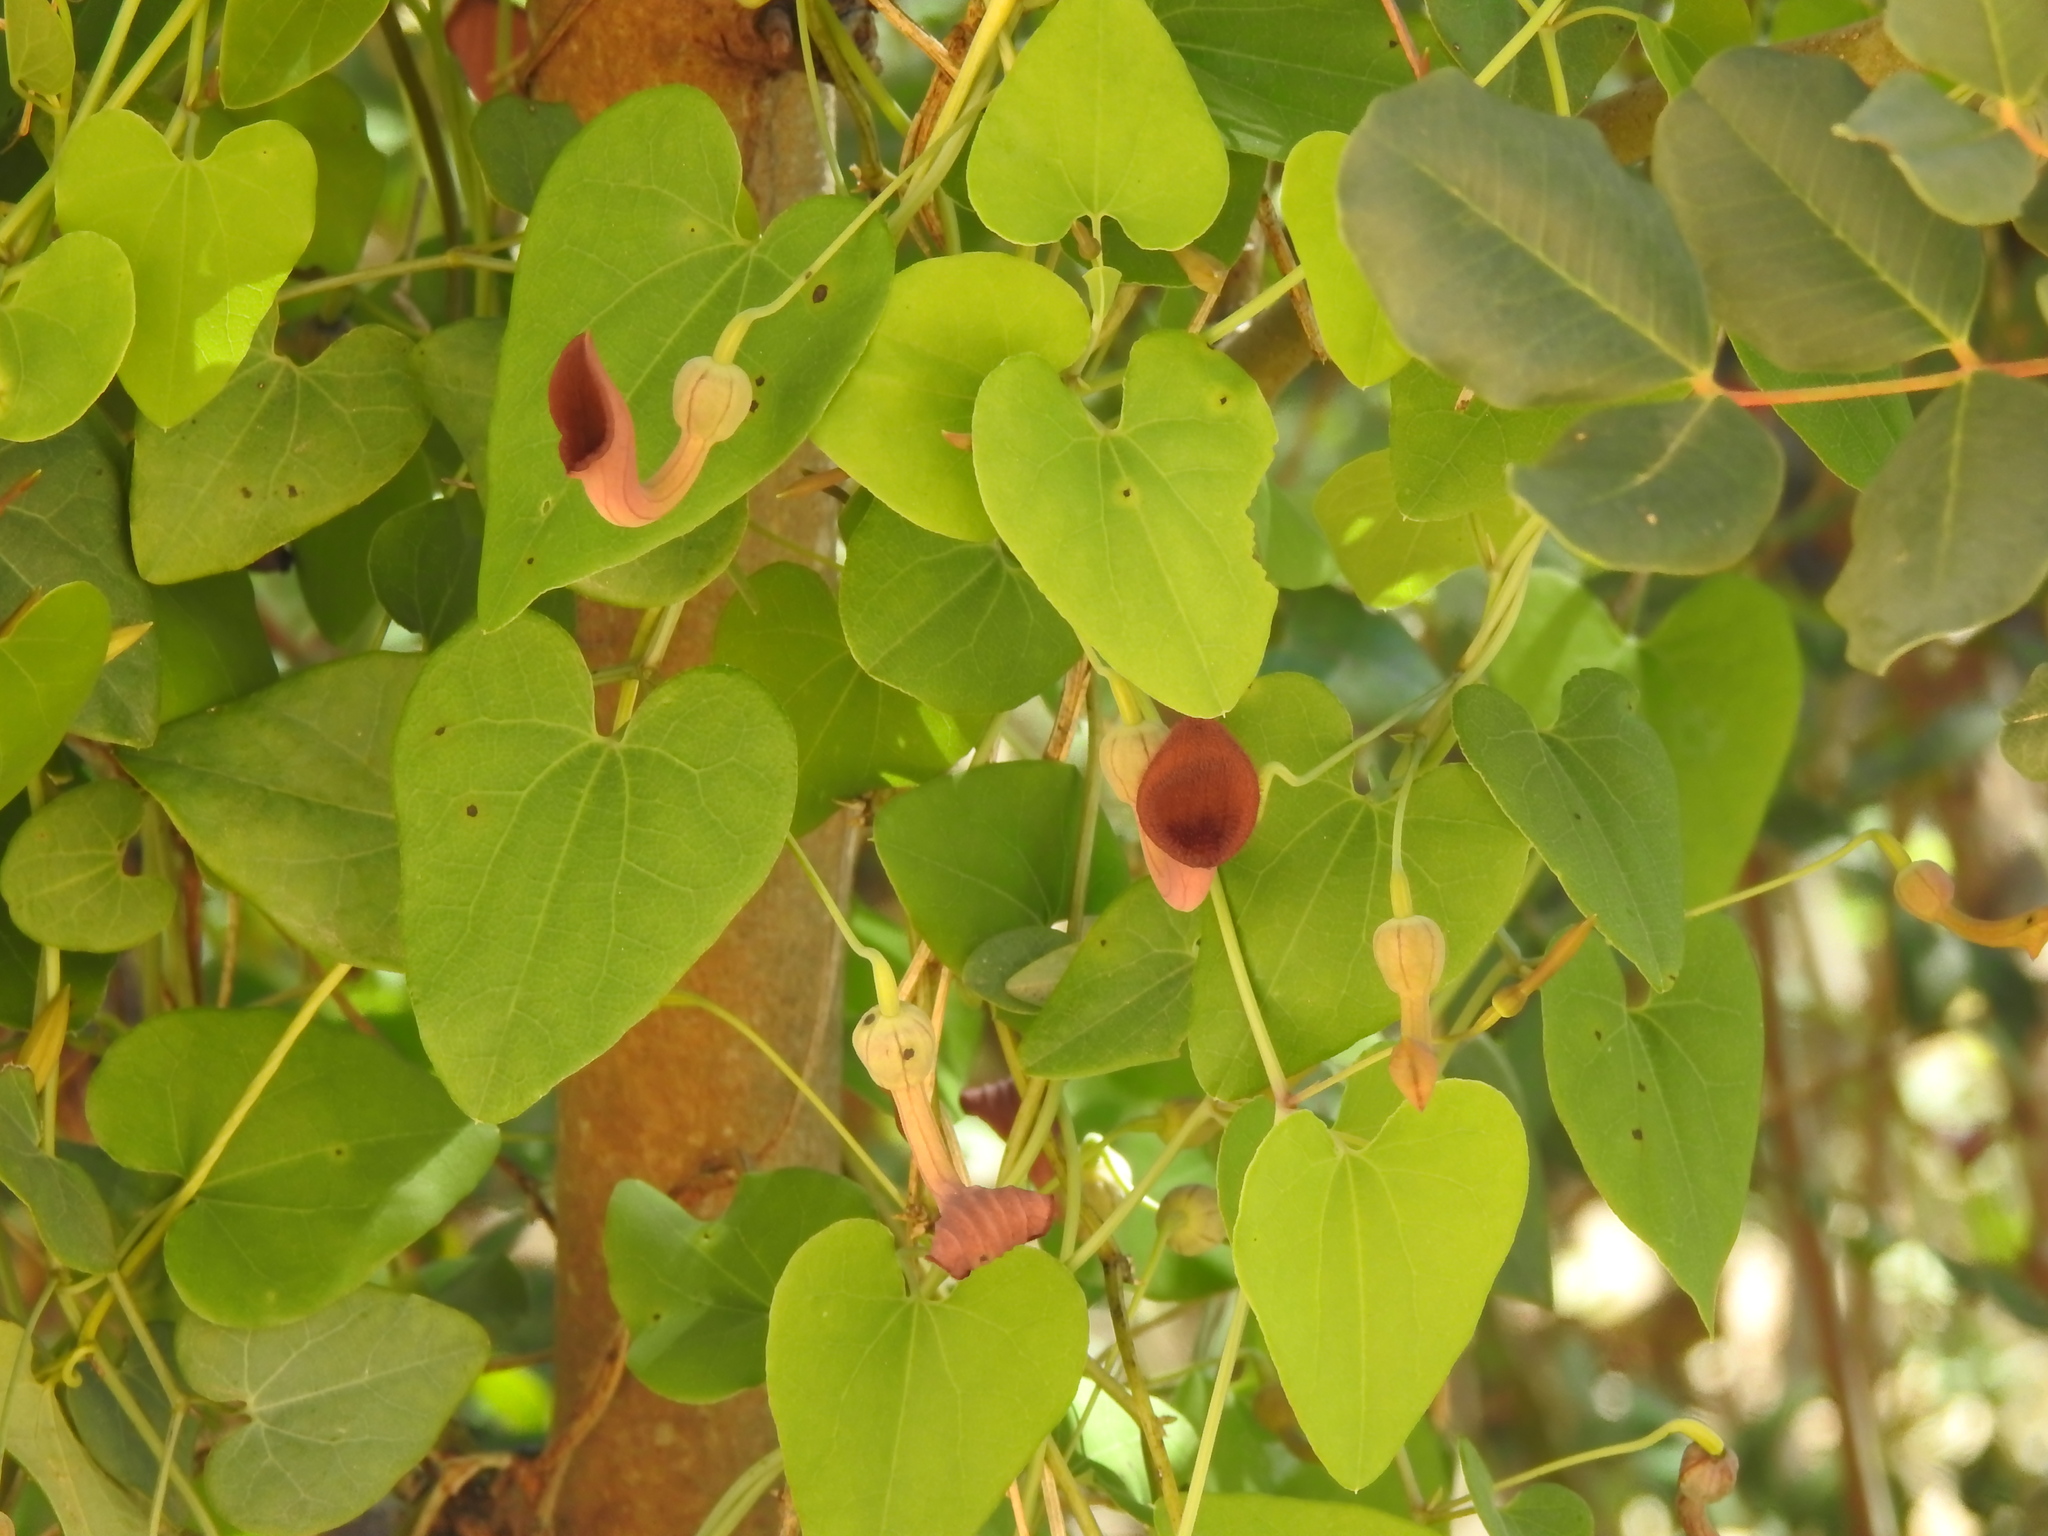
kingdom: Plantae
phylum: Tracheophyta
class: Magnoliopsida
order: Piperales
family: Aristolochiaceae
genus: Aristolochia
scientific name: Aristolochia baetica
